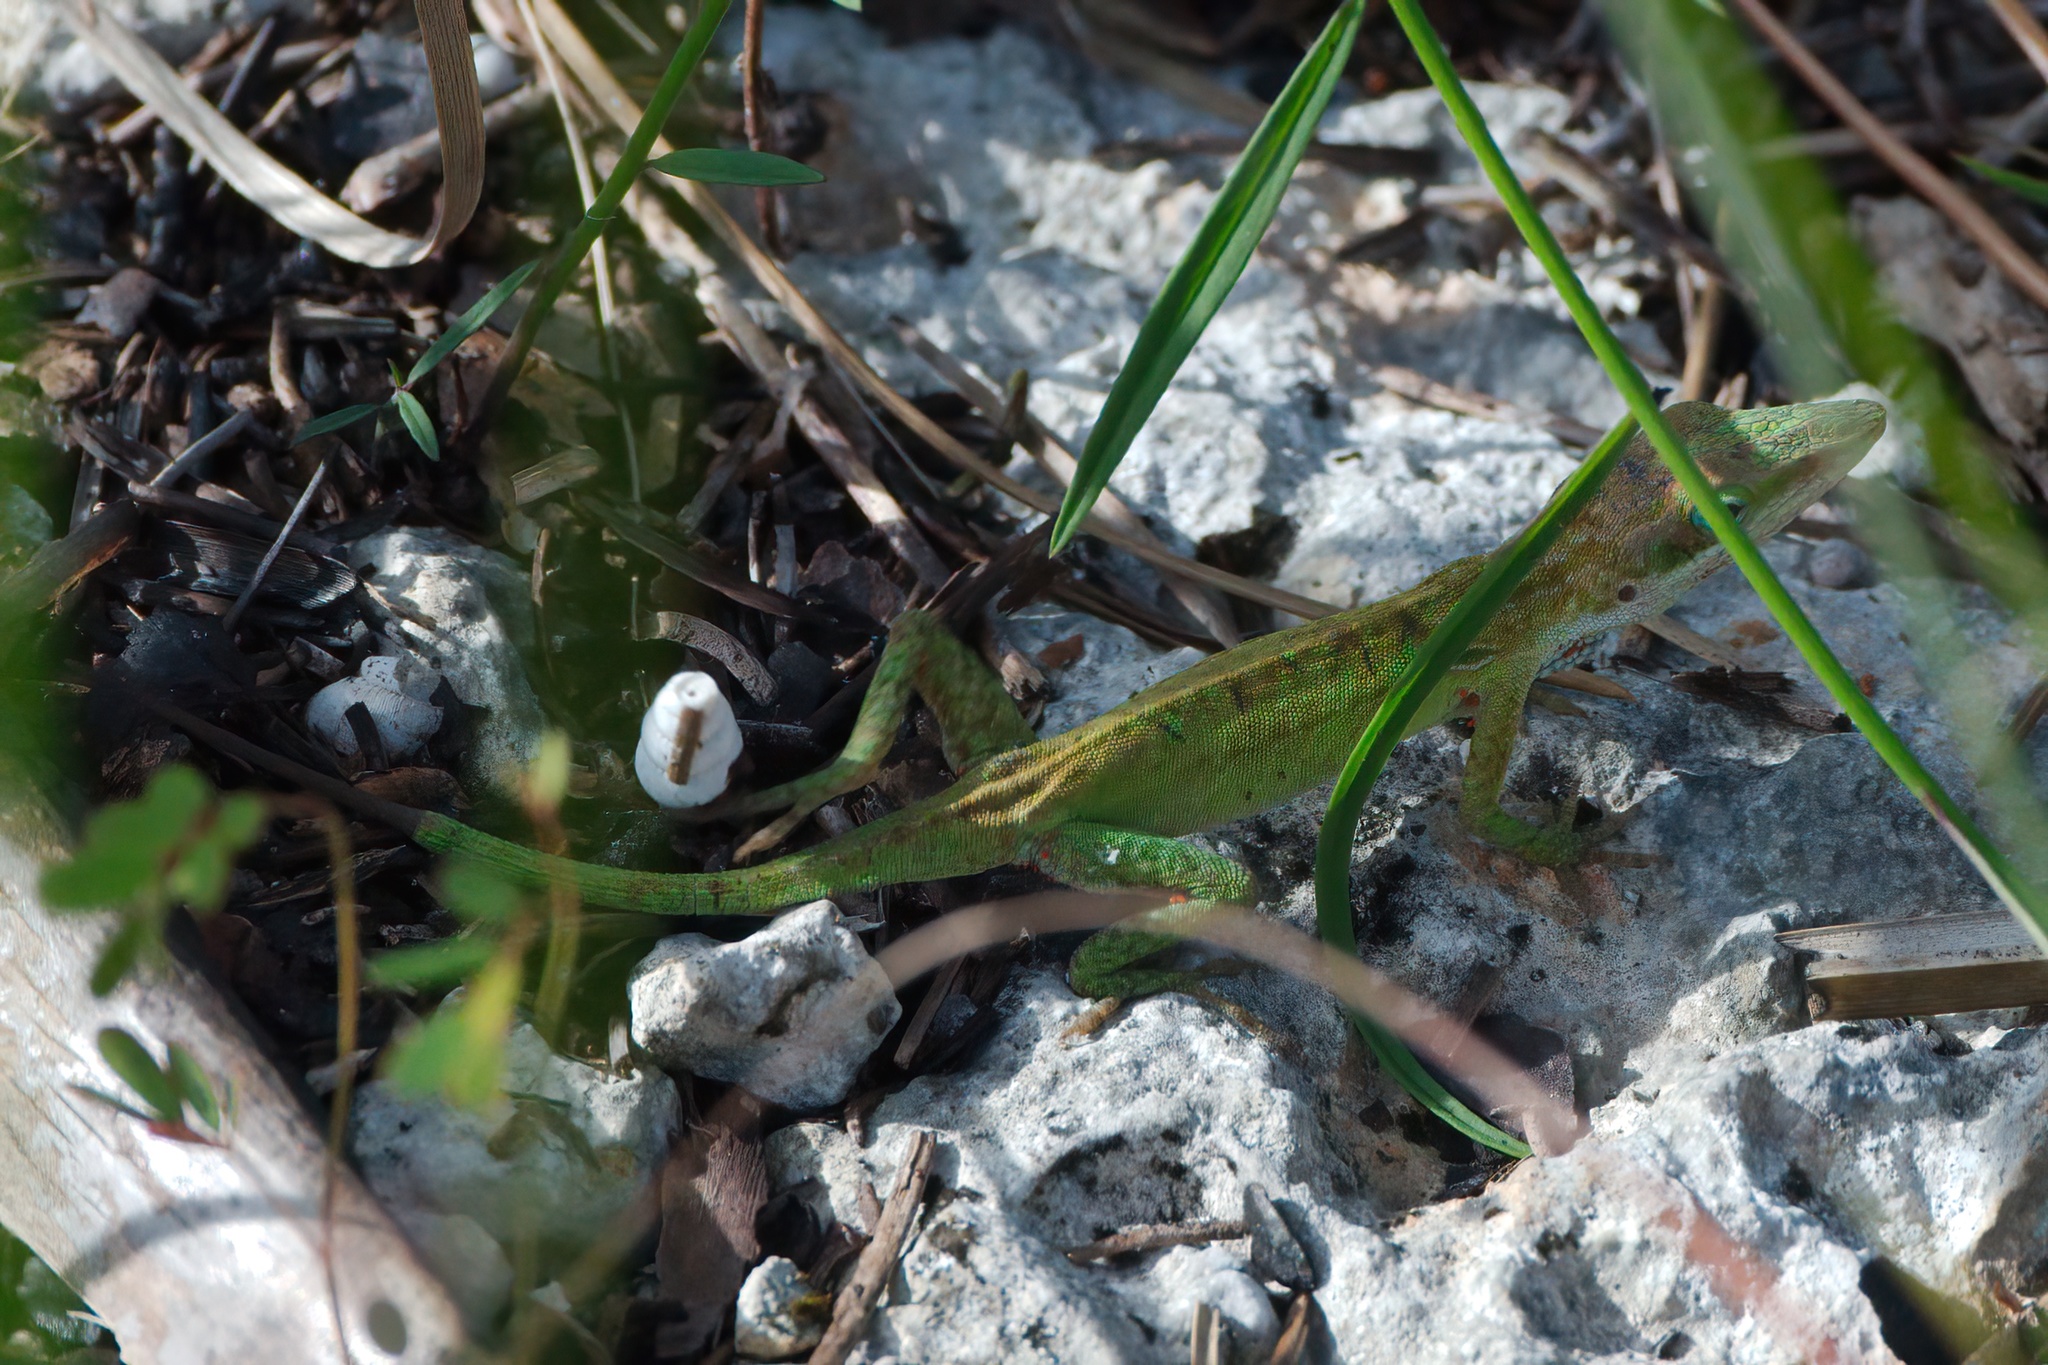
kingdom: Animalia
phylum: Chordata
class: Squamata
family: Dactyloidae
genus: Anolis
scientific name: Anolis carolinensis
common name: Green anole
